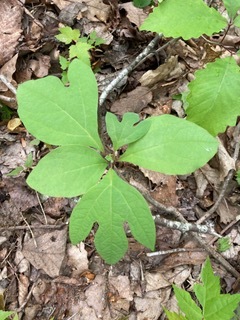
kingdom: Plantae
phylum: Tracheophyta
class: Magnoliopsida
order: Laurales
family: Lauraceae
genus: Sassafras
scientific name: Sassafras albidum
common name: Sassafras
